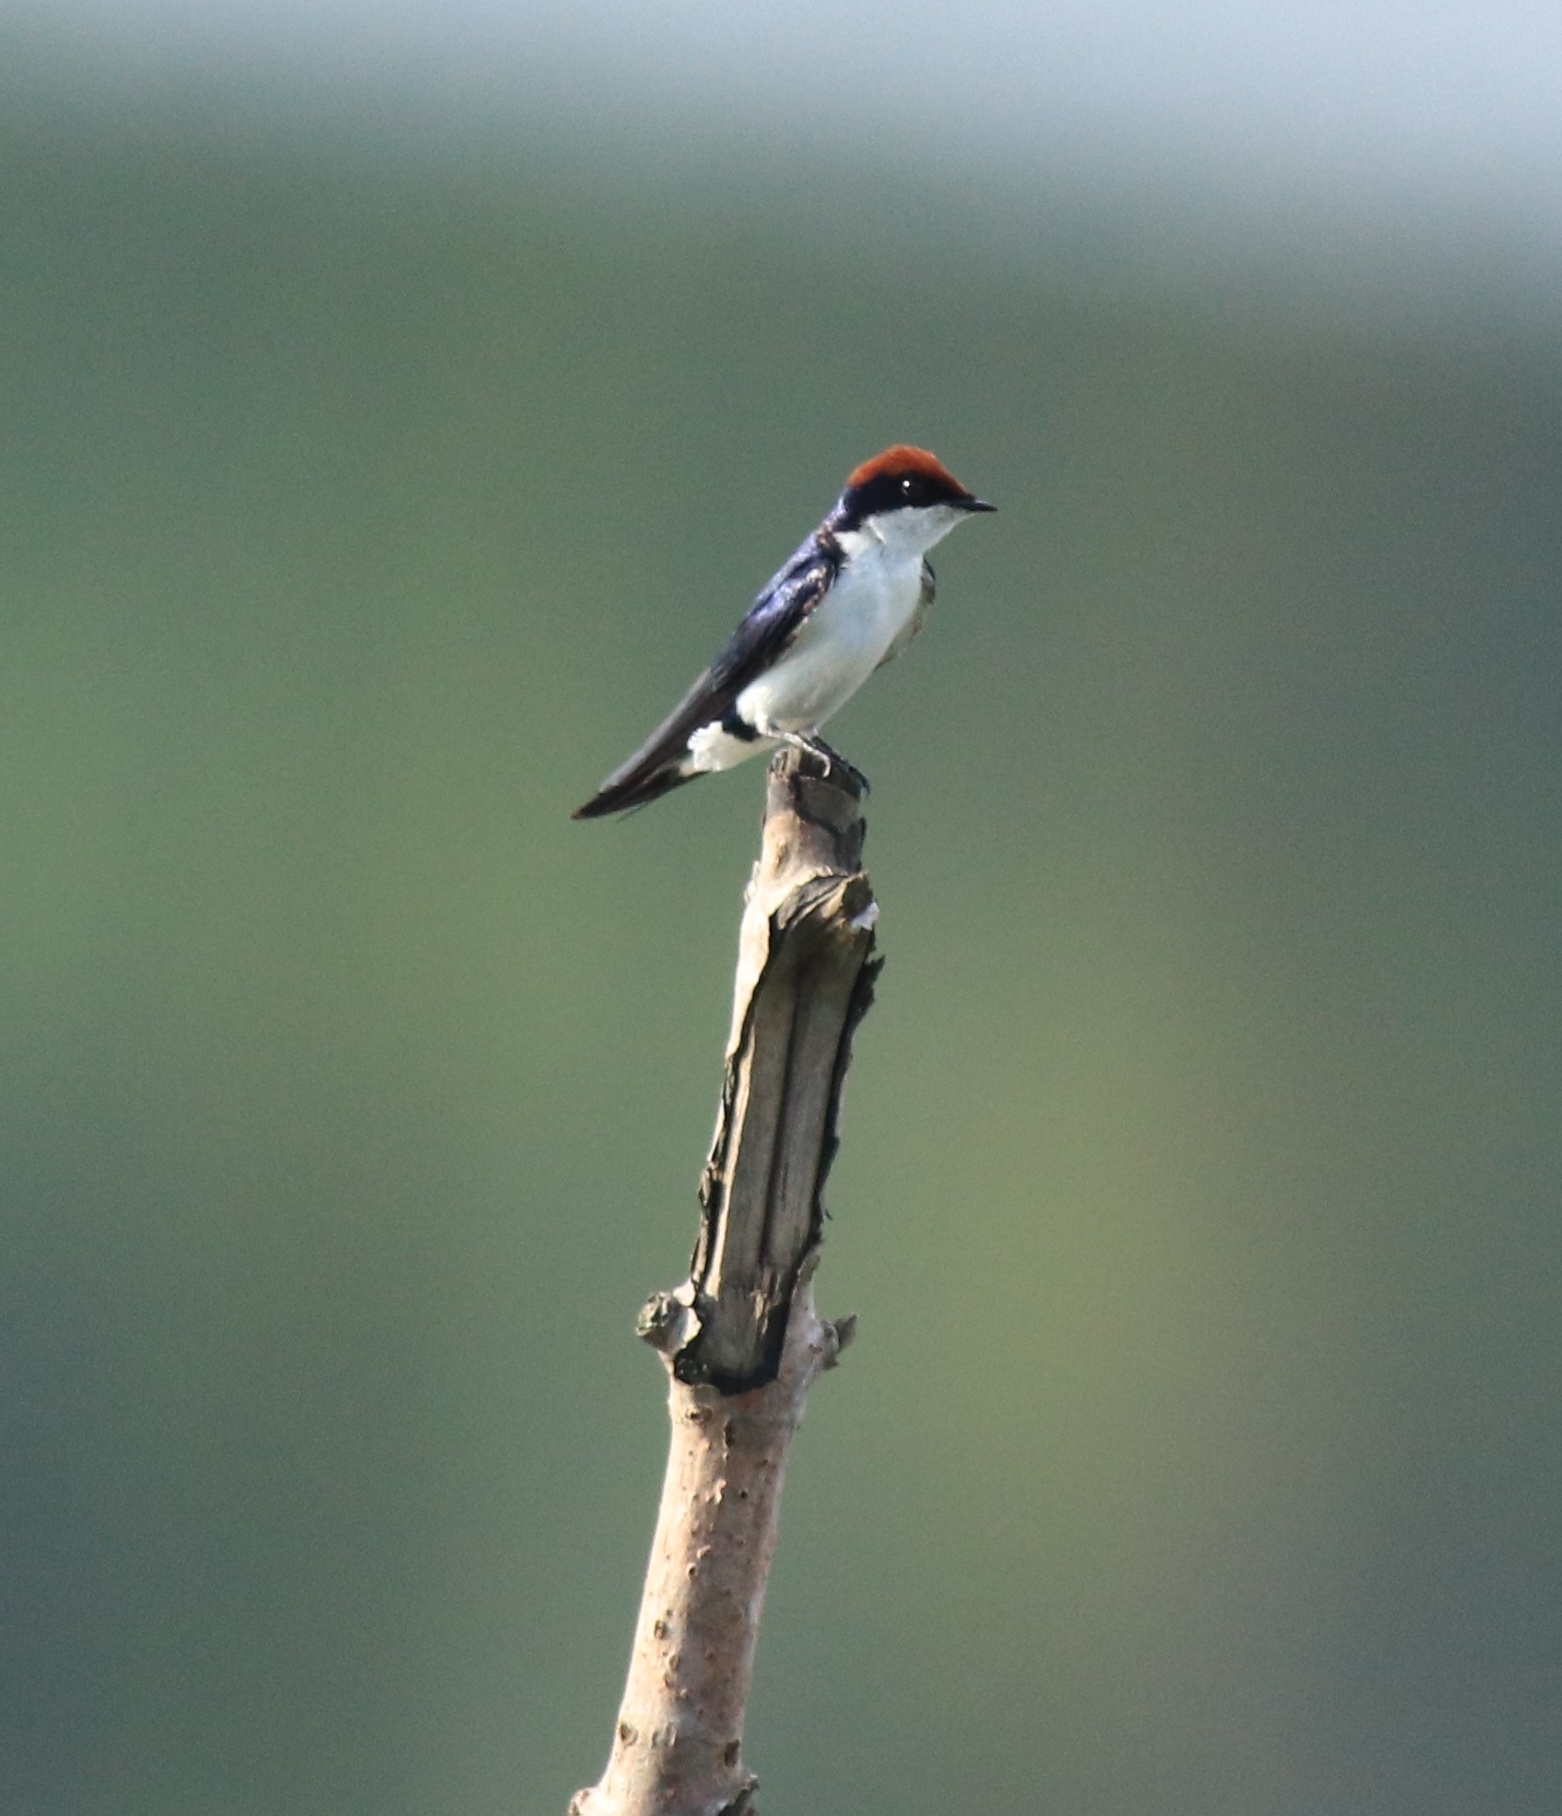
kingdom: Animalia
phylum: Chordata
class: Aves
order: Passeriformes
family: Hirundinidae
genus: Hirundo
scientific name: Hirundo smithii
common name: Wire-tailed swallow
